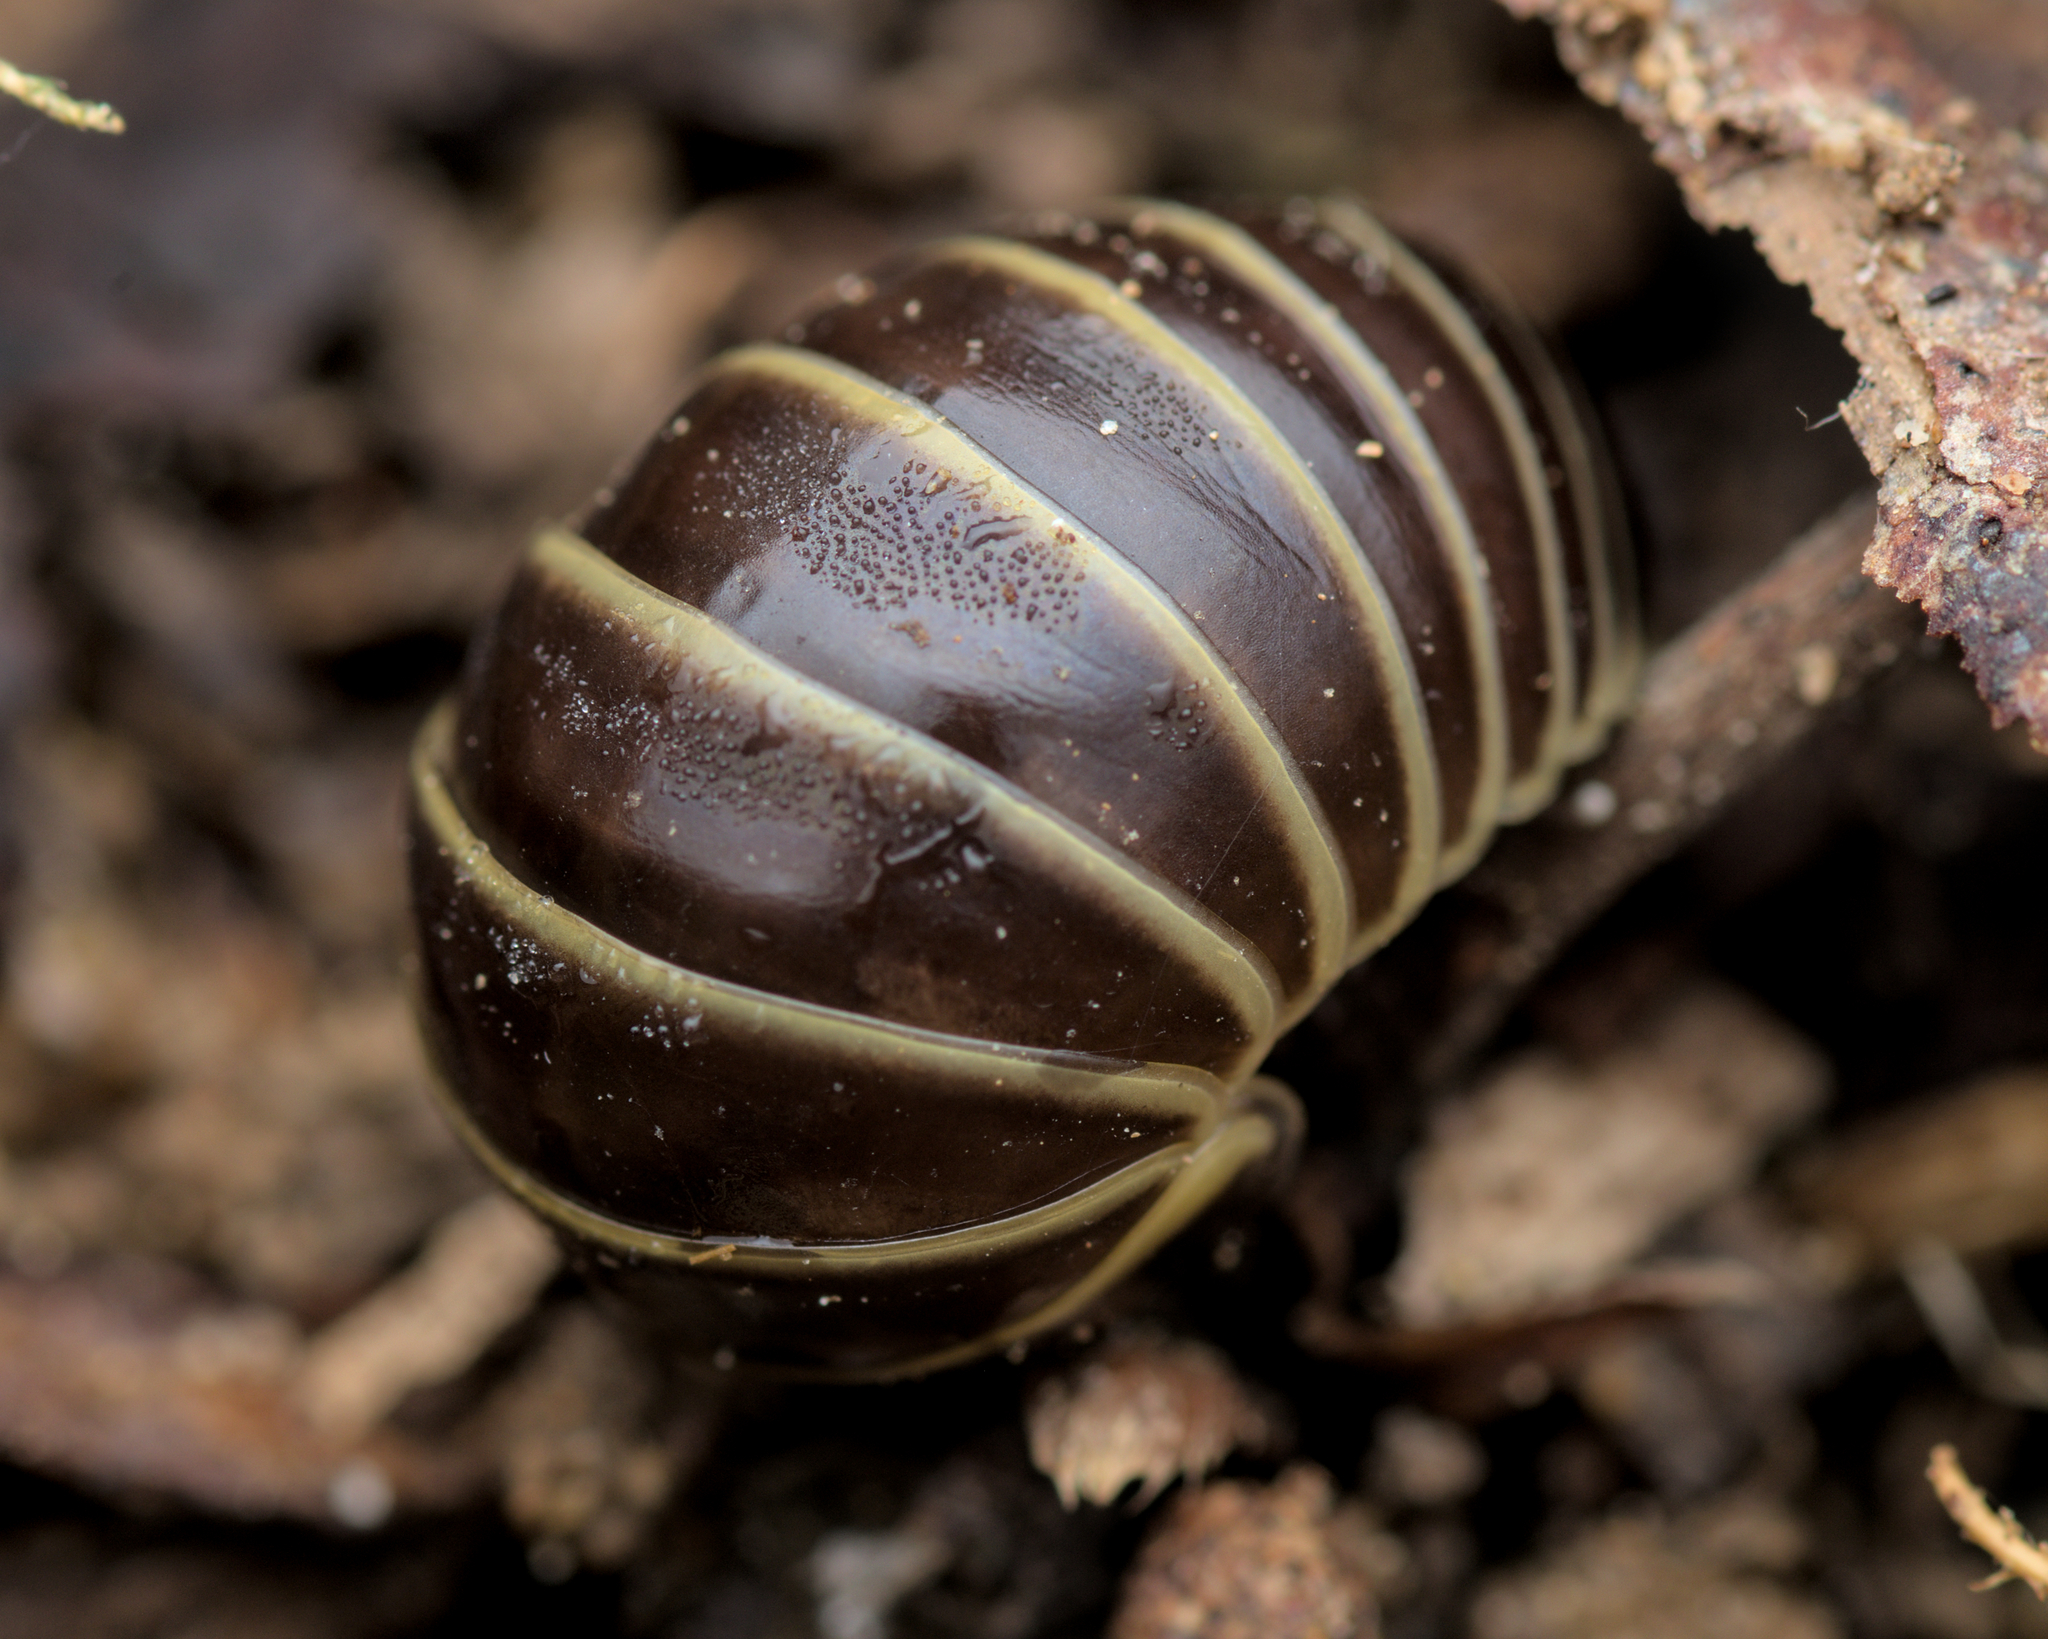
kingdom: Animalia
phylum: Arthropoda
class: Diplopoda
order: Glomerida
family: Glomeridae
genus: Glomeris
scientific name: Glomeris marginata
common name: Bordered pill millipede
